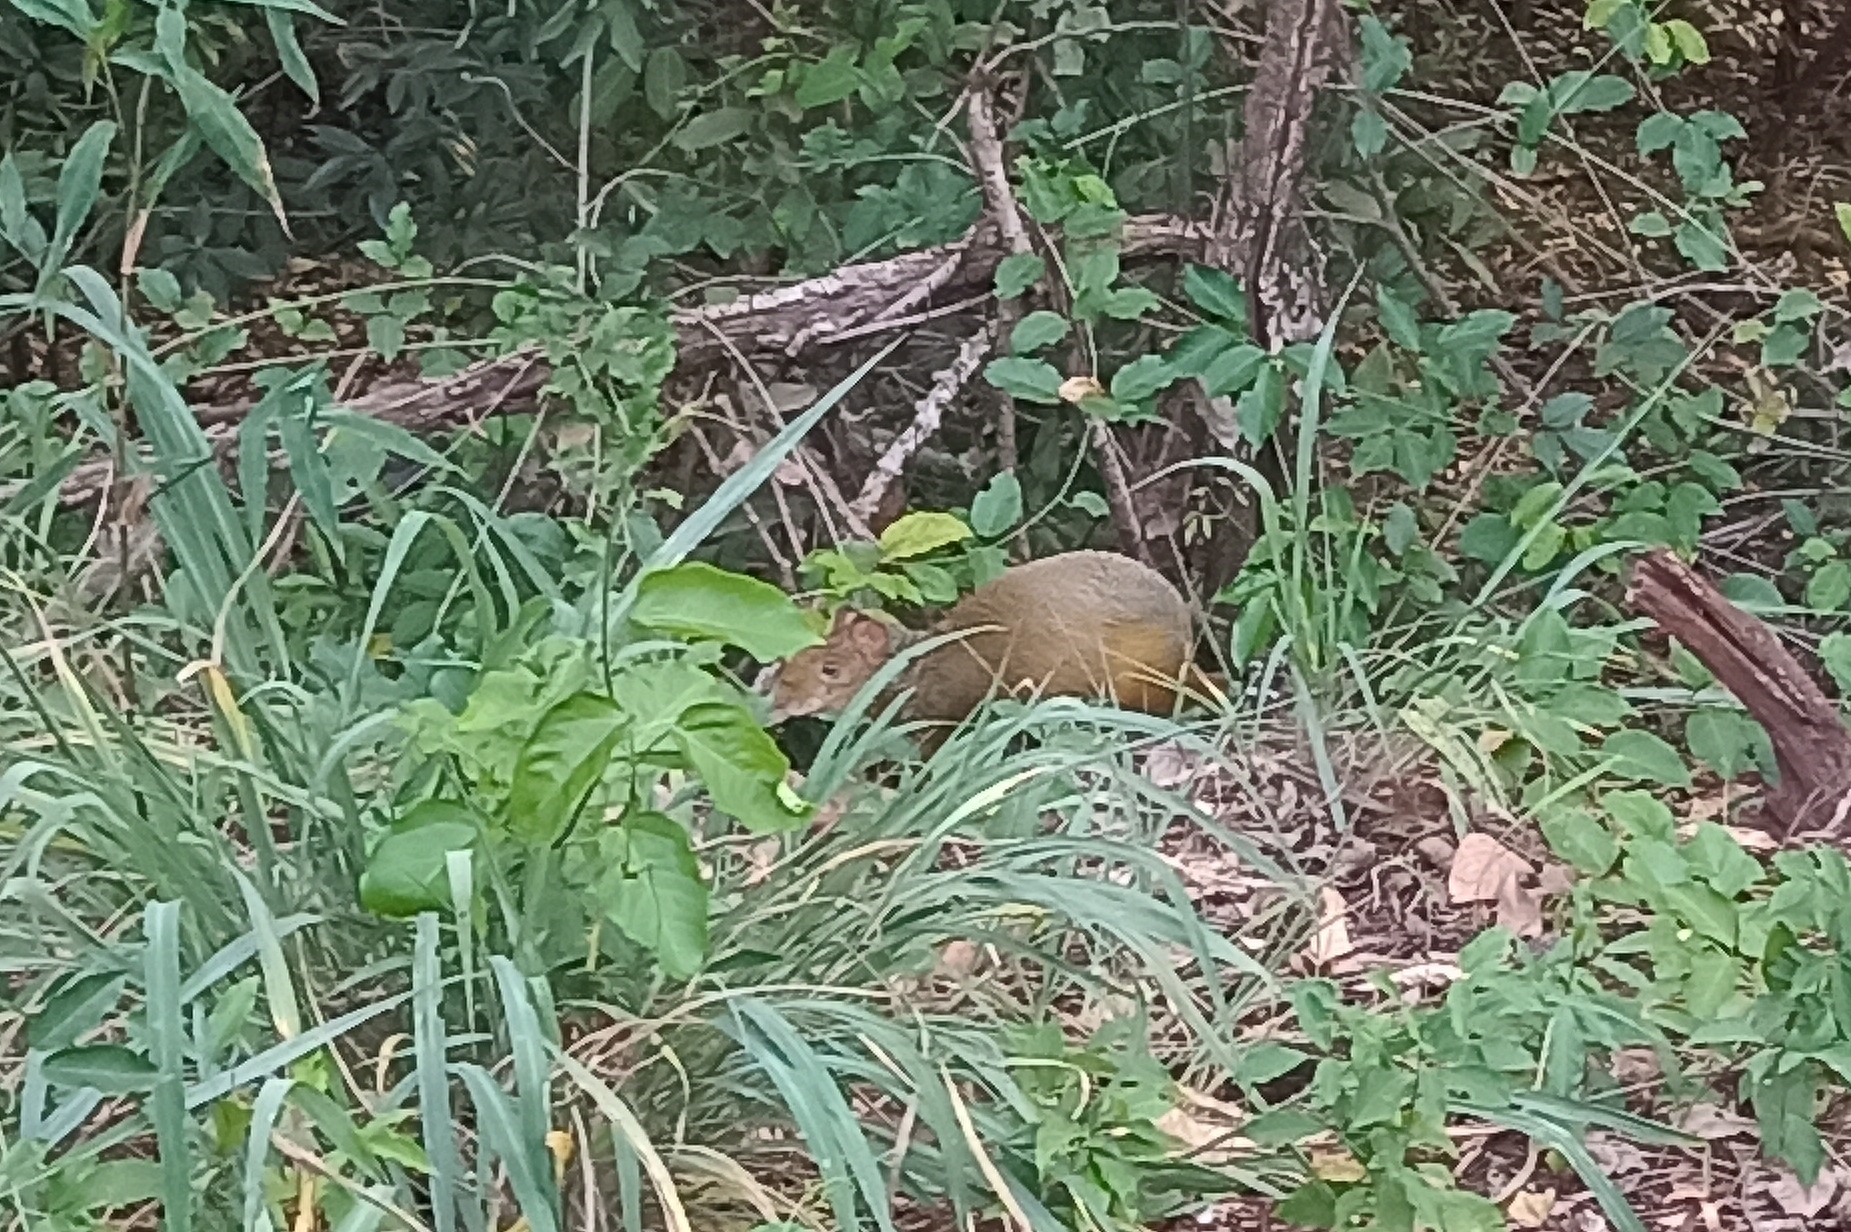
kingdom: Animalia
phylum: Chordata
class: Mammalia
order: Rodentia
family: Dasyproctidae
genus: Dasyprocta
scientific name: Dasyprocta azarae
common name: Azara's agouti
